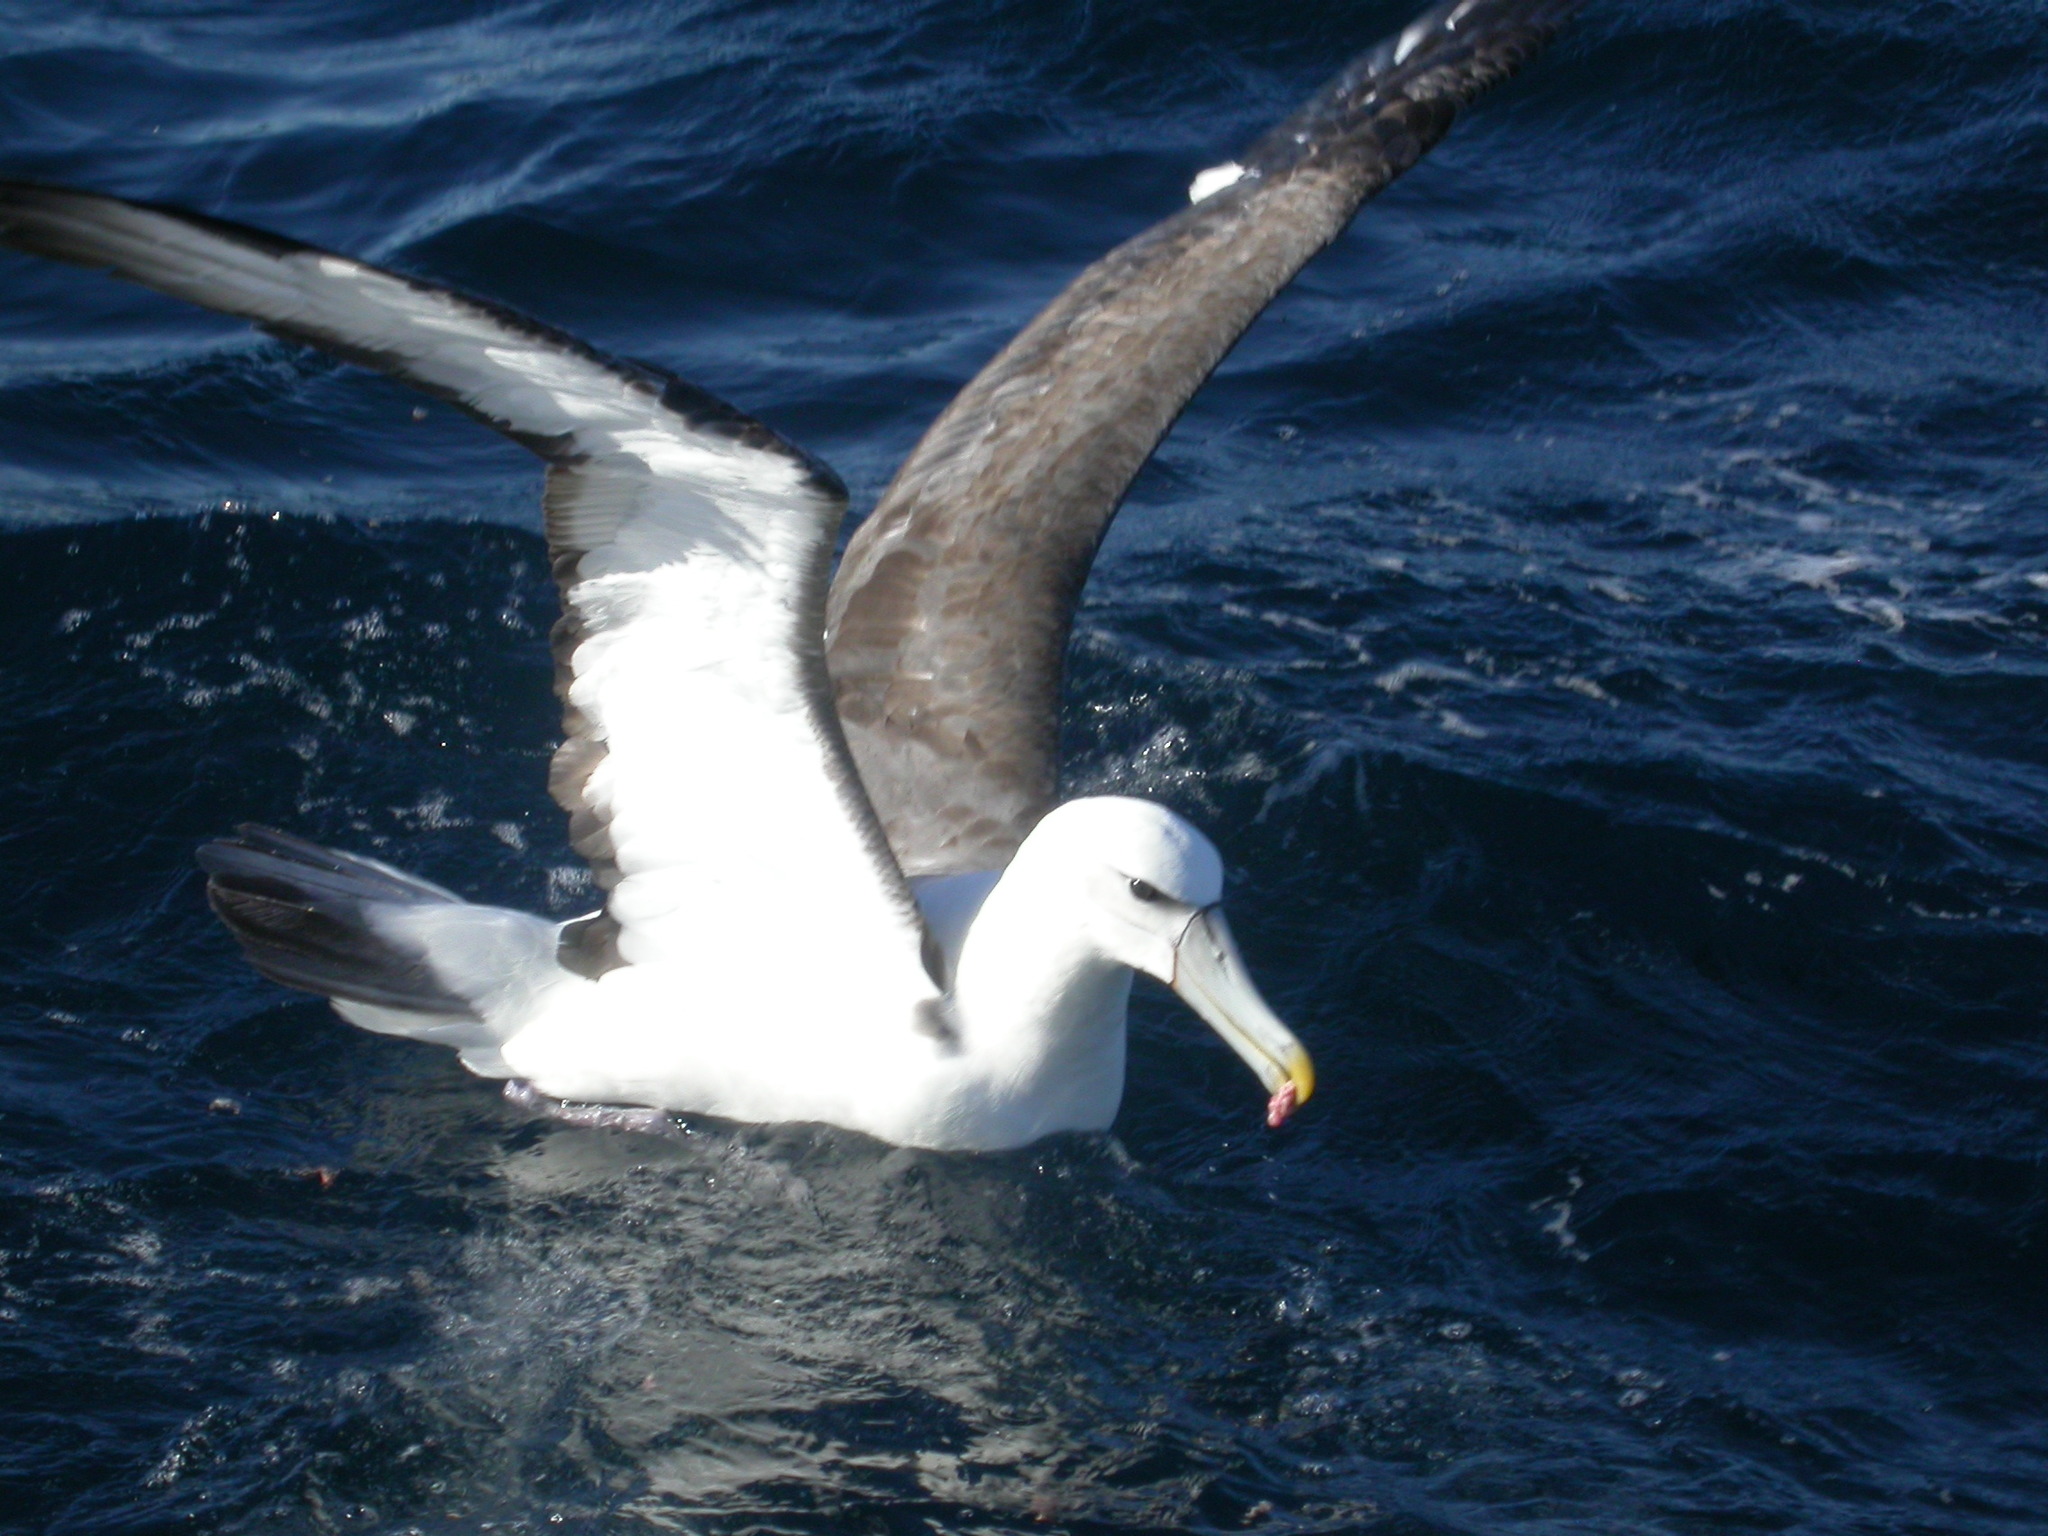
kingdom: Animalia
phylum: Chordata
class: Aves
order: Procellariiformes
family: Diomedeidae
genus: Thalassarche
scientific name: Thalassarche cauta
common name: Shy albatross
